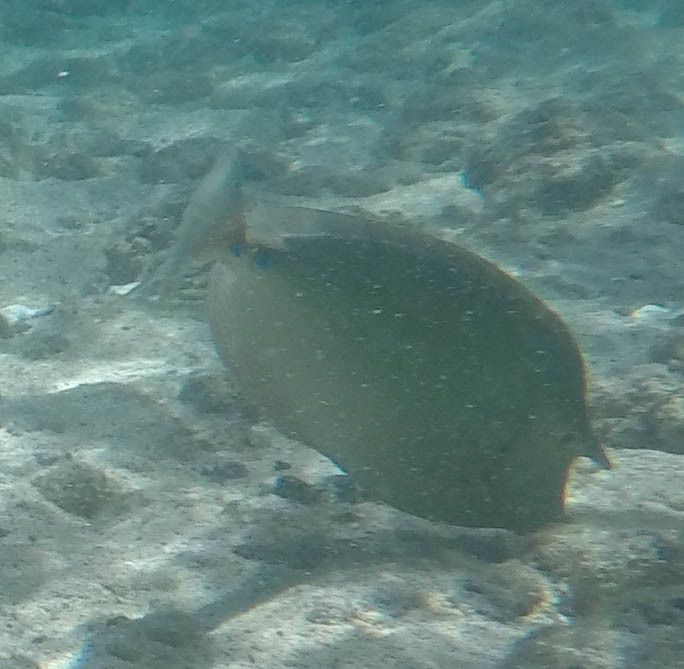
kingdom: Animalia
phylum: Chordata
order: Perciformes
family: Acanthuridae
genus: Naso
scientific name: Naso unicornis
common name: Bluespine unicornfish
